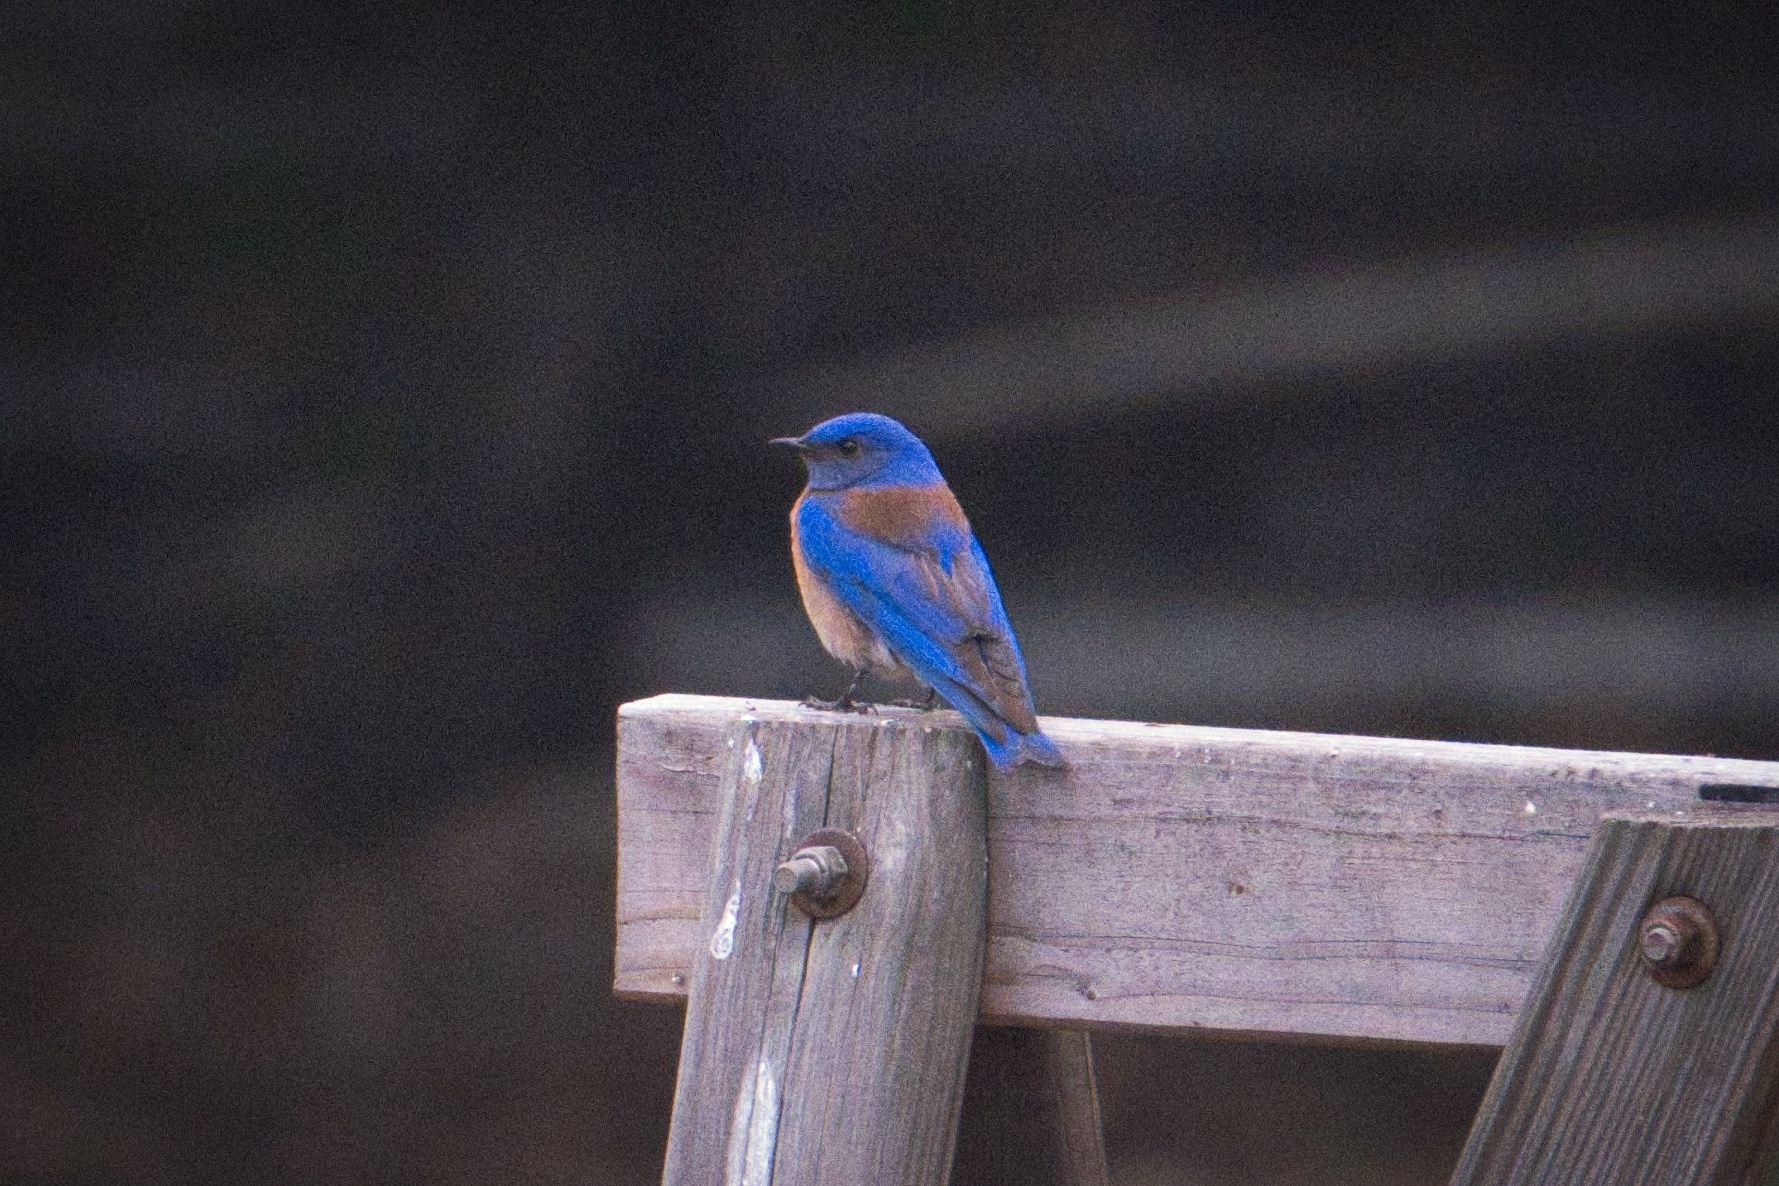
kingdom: Animalia
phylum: Chordata
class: Aves
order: Passeriformes
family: Turdidae
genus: Sialia
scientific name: Sialia mexicana
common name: Western bluebird
